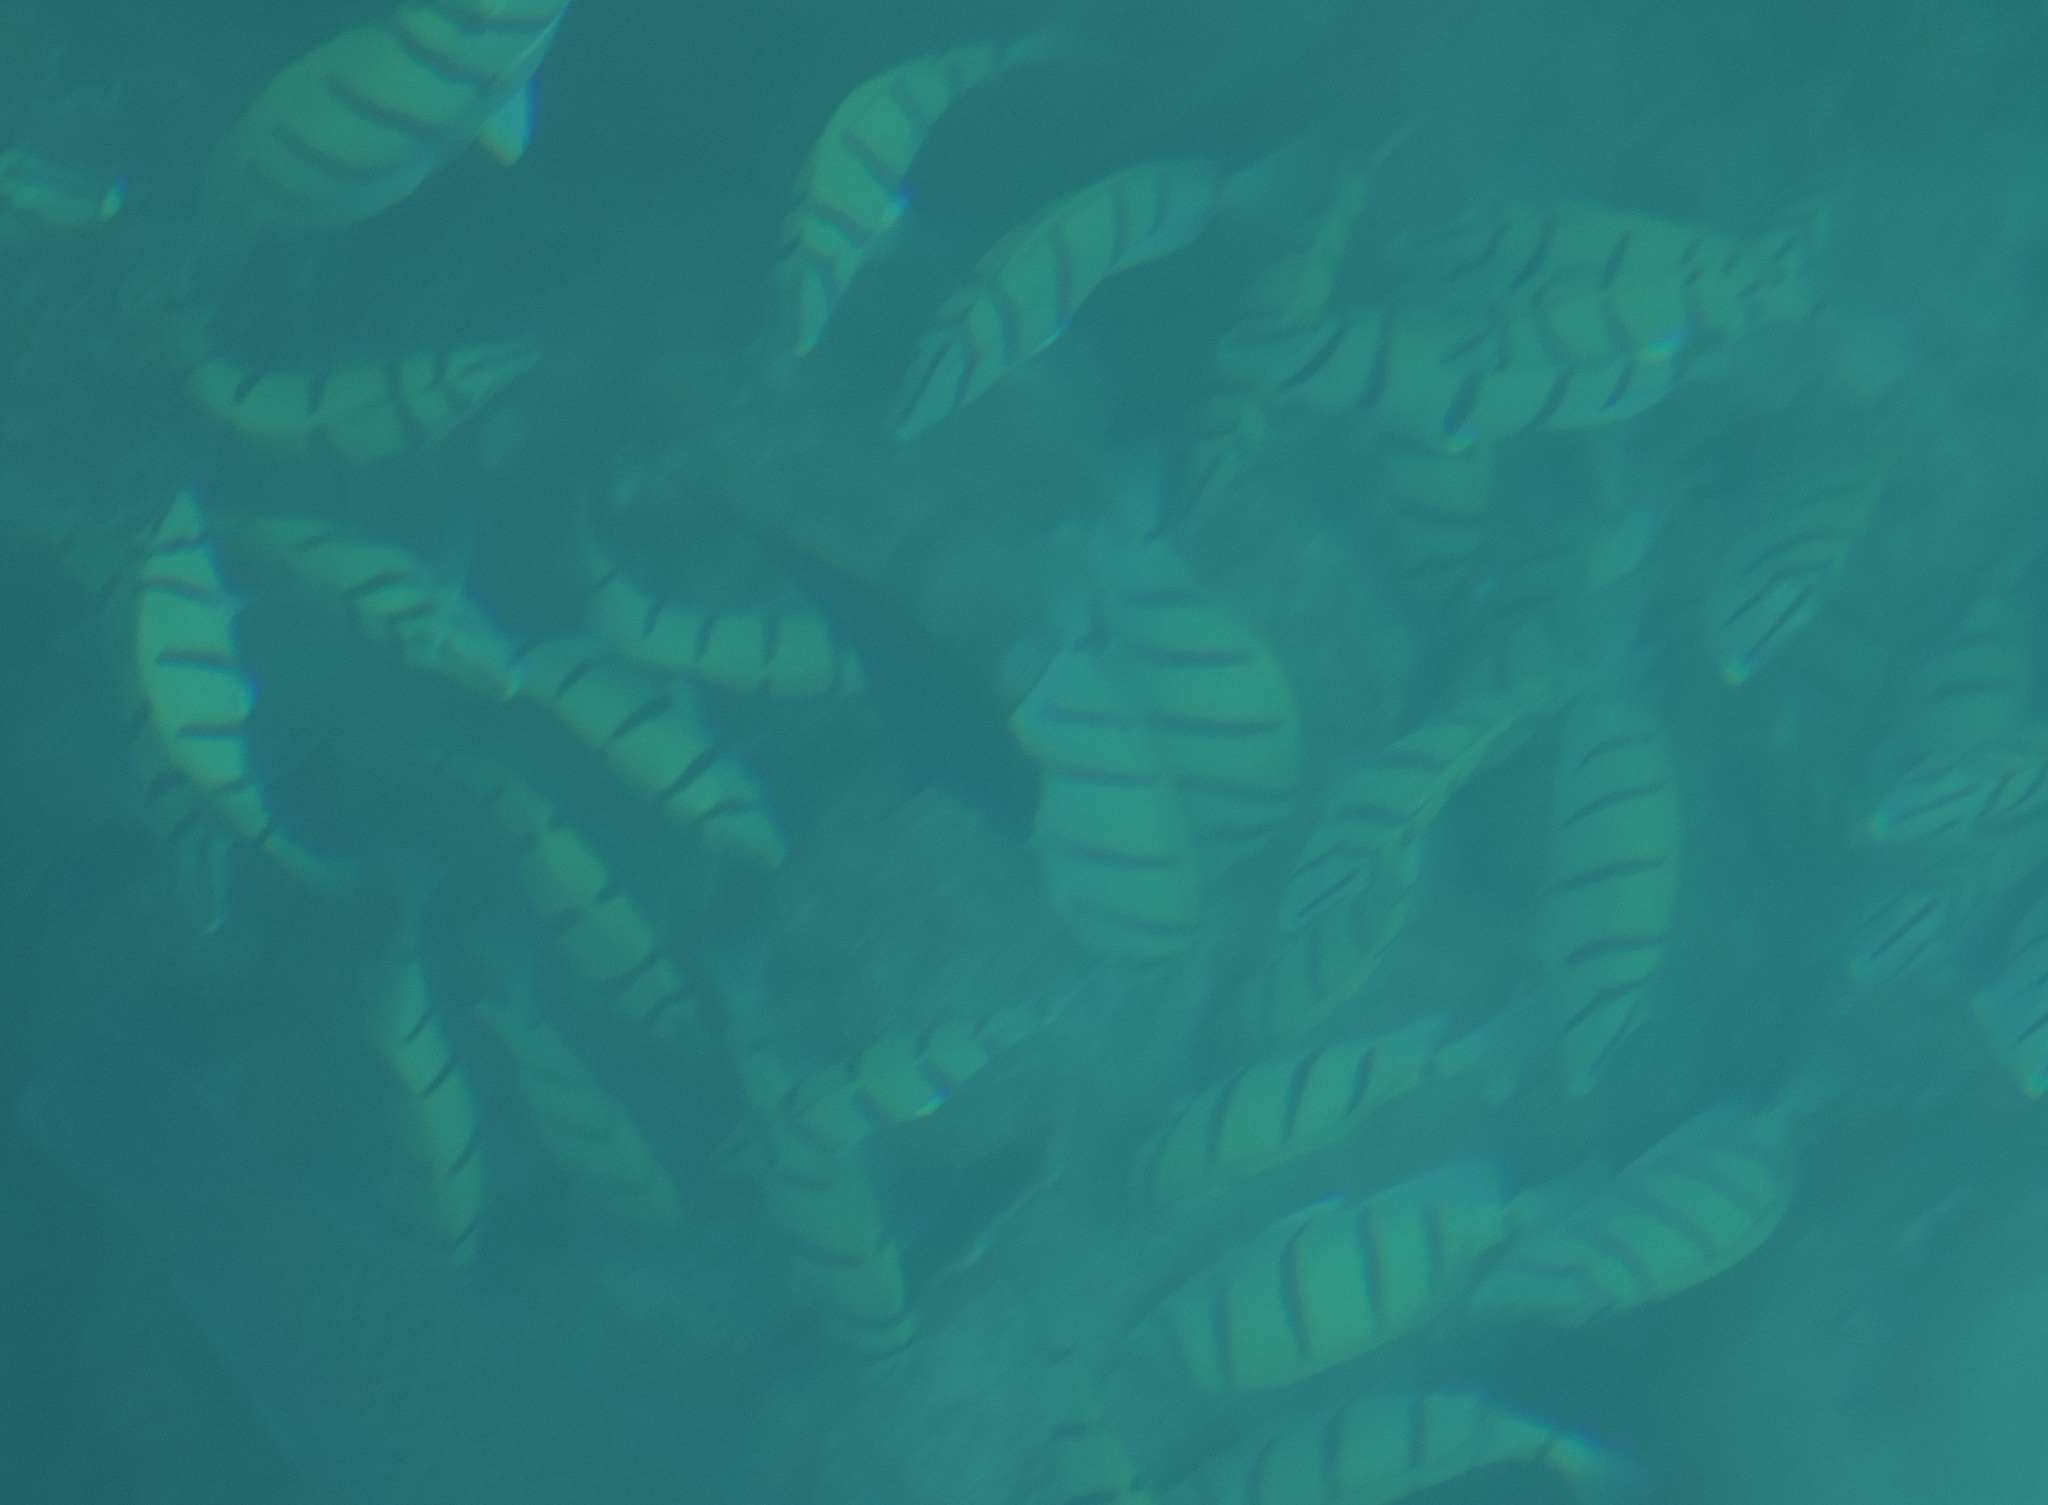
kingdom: Animalia
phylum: Chordata
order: Perciformes
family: Acanthuridae
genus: Acanthurus
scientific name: Acanthurus triostegus
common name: Convict surgeonfish
